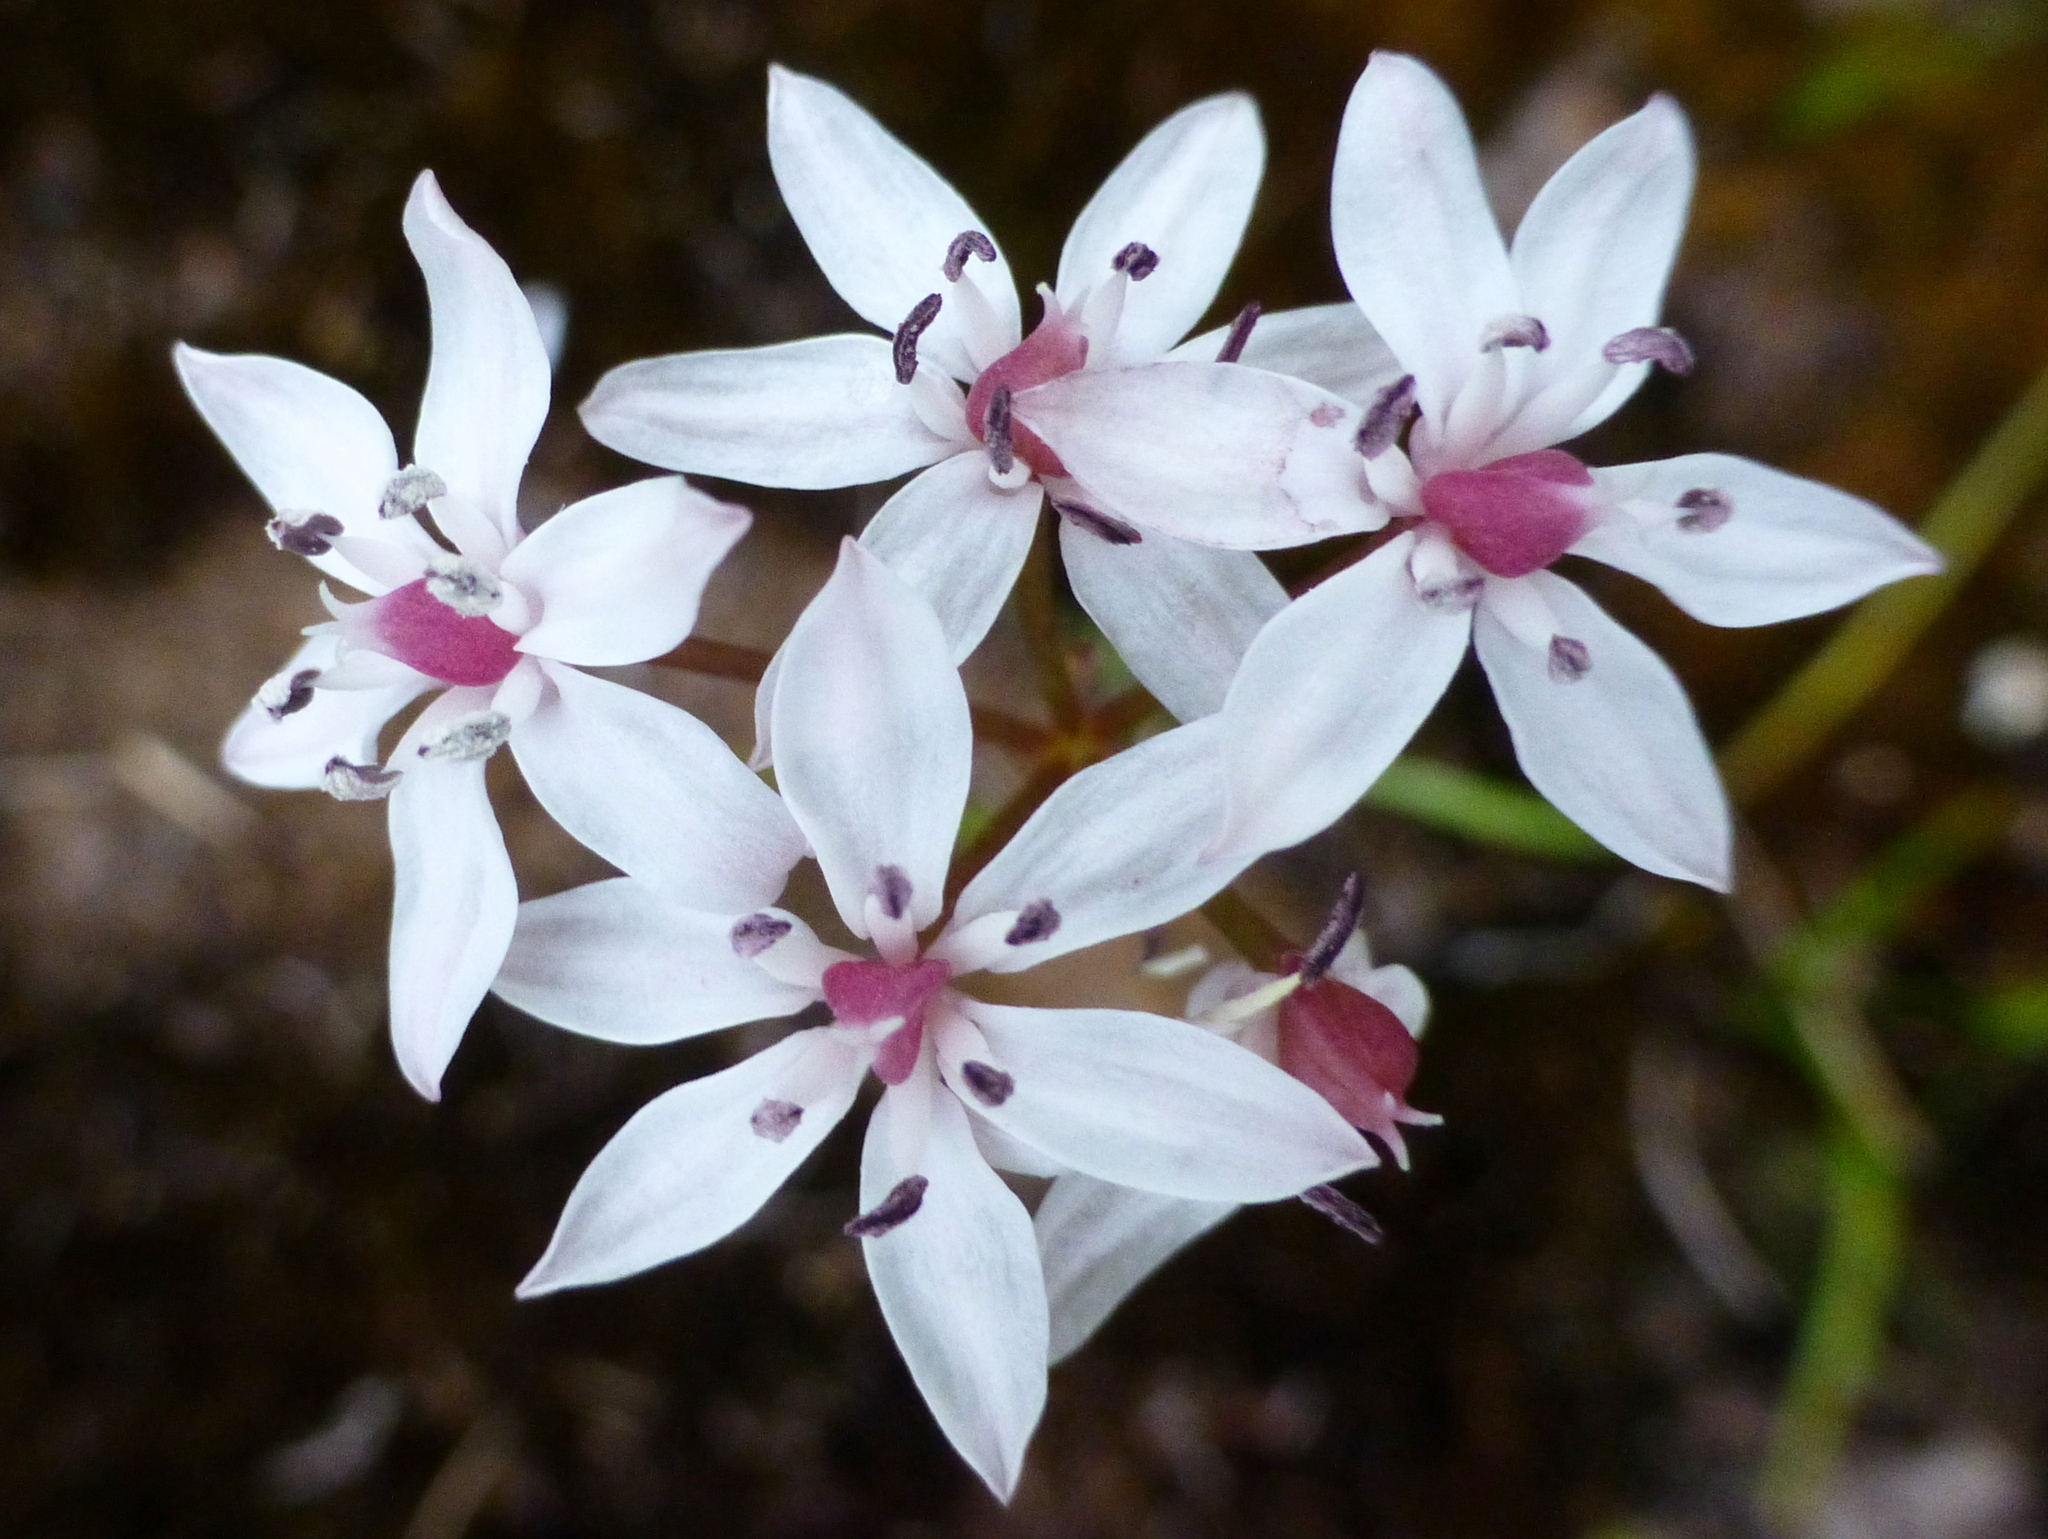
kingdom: Plantae
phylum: Tracheophyta
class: Liliopsida
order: Liliales
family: Colchicaceae
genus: Burchardia
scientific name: Burchardia umbellata
